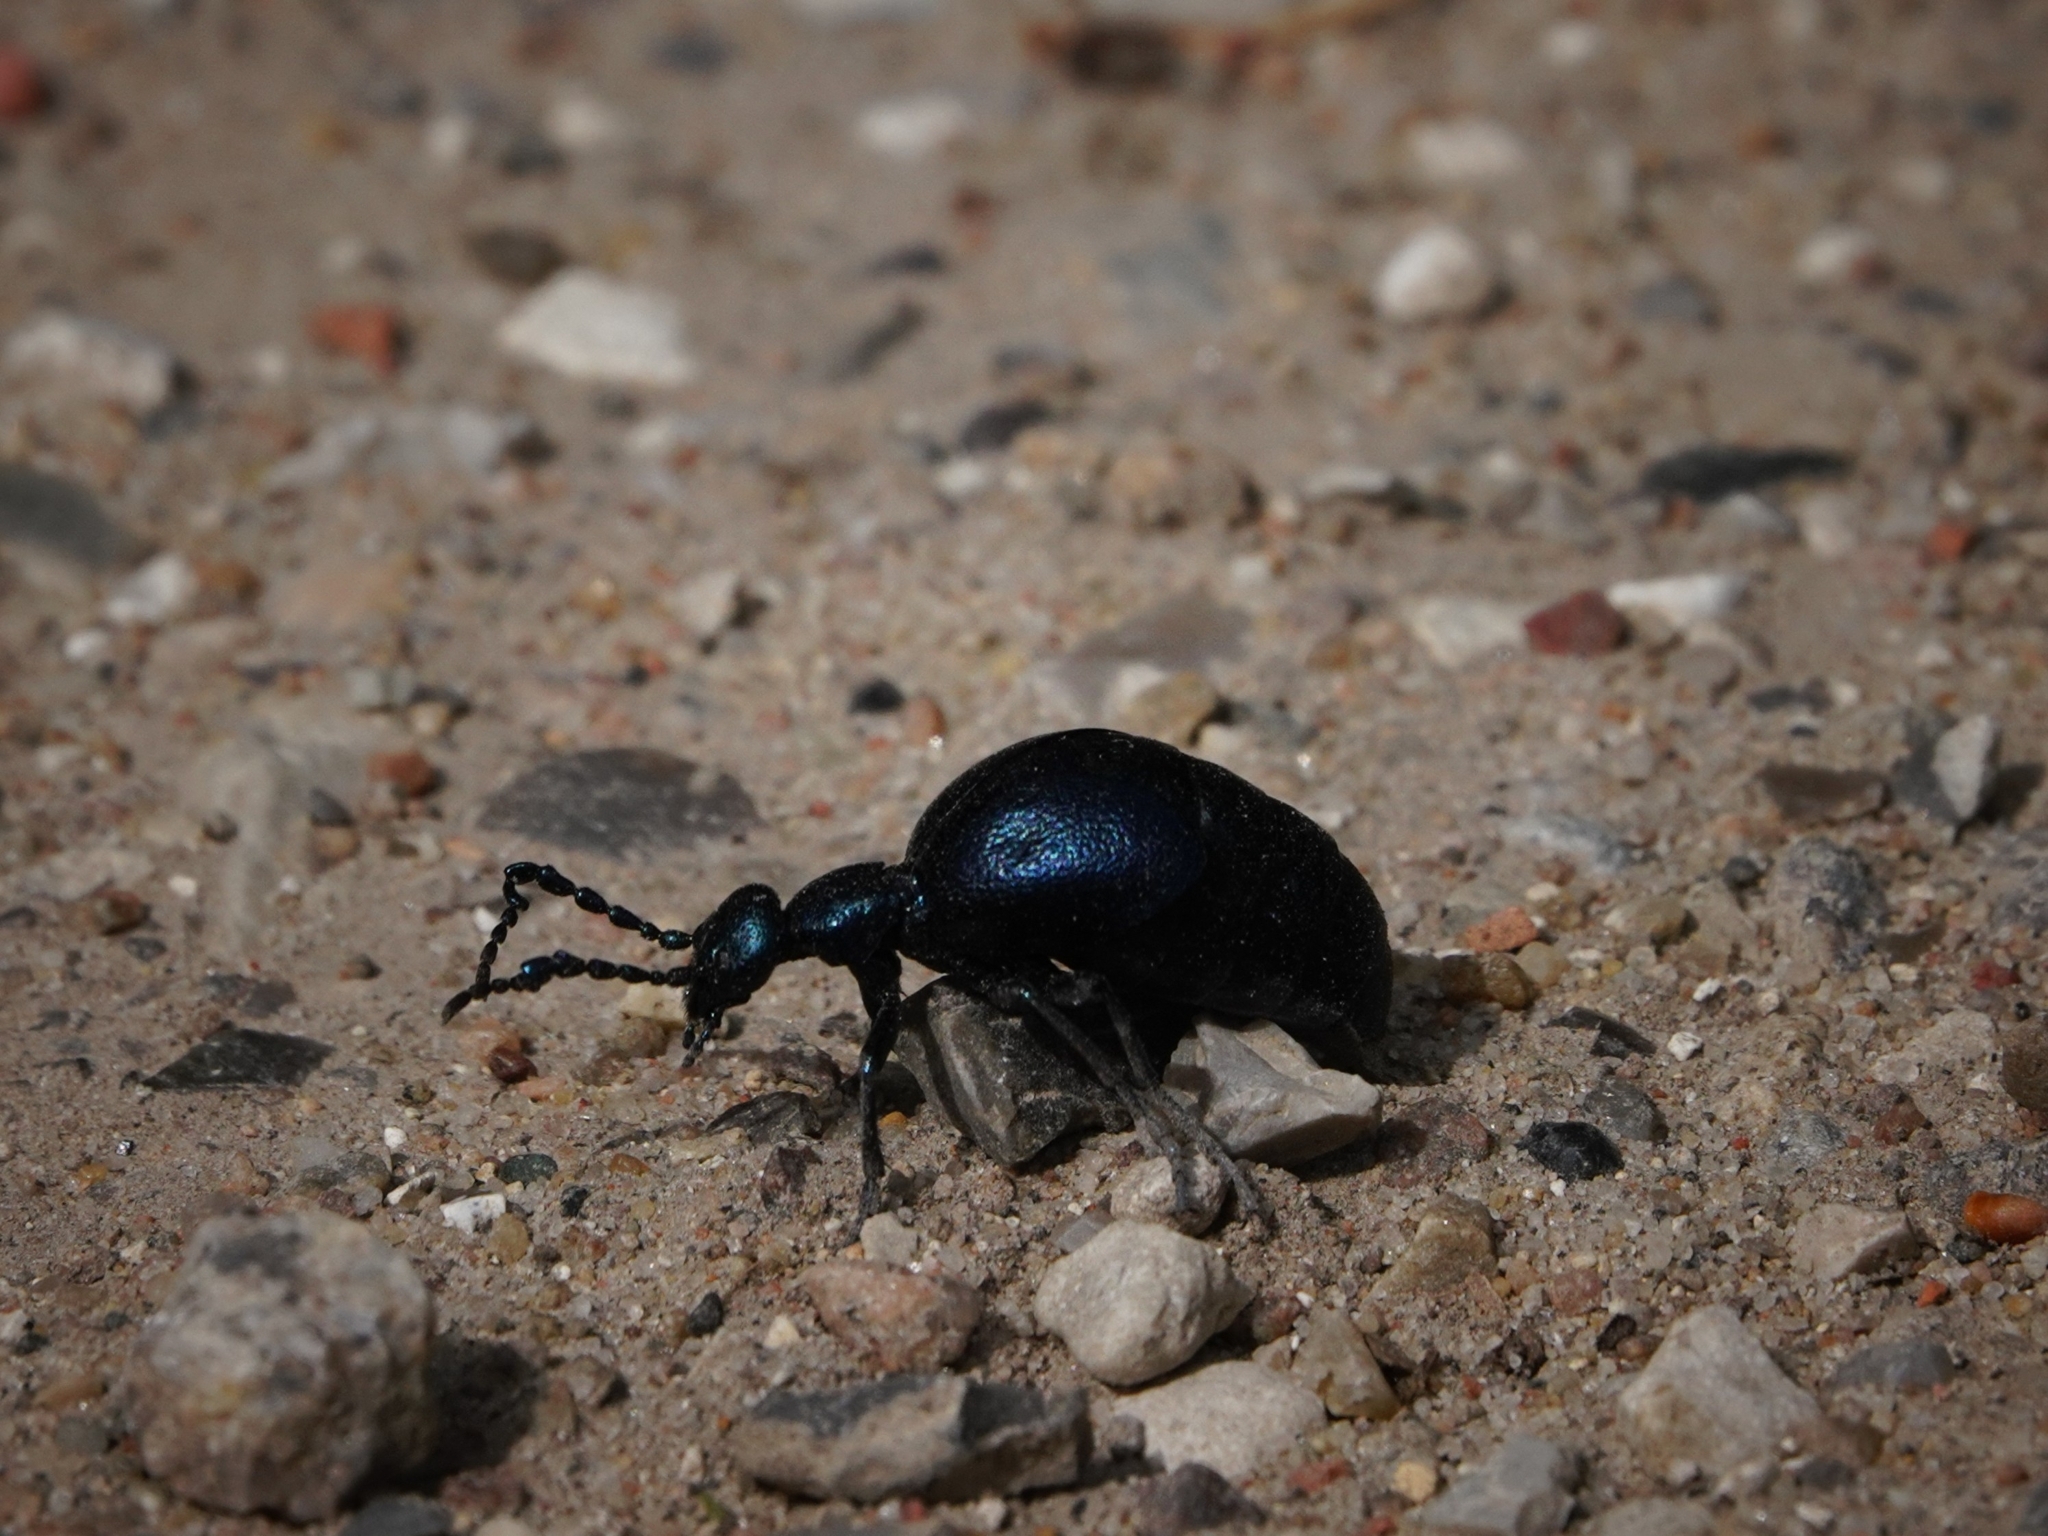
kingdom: Animalia
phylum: Arthropoda
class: Insecta
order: Coleoptera
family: Meloidae
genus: Meloe
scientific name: Meloe violaceus
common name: Violet oil-beetle
